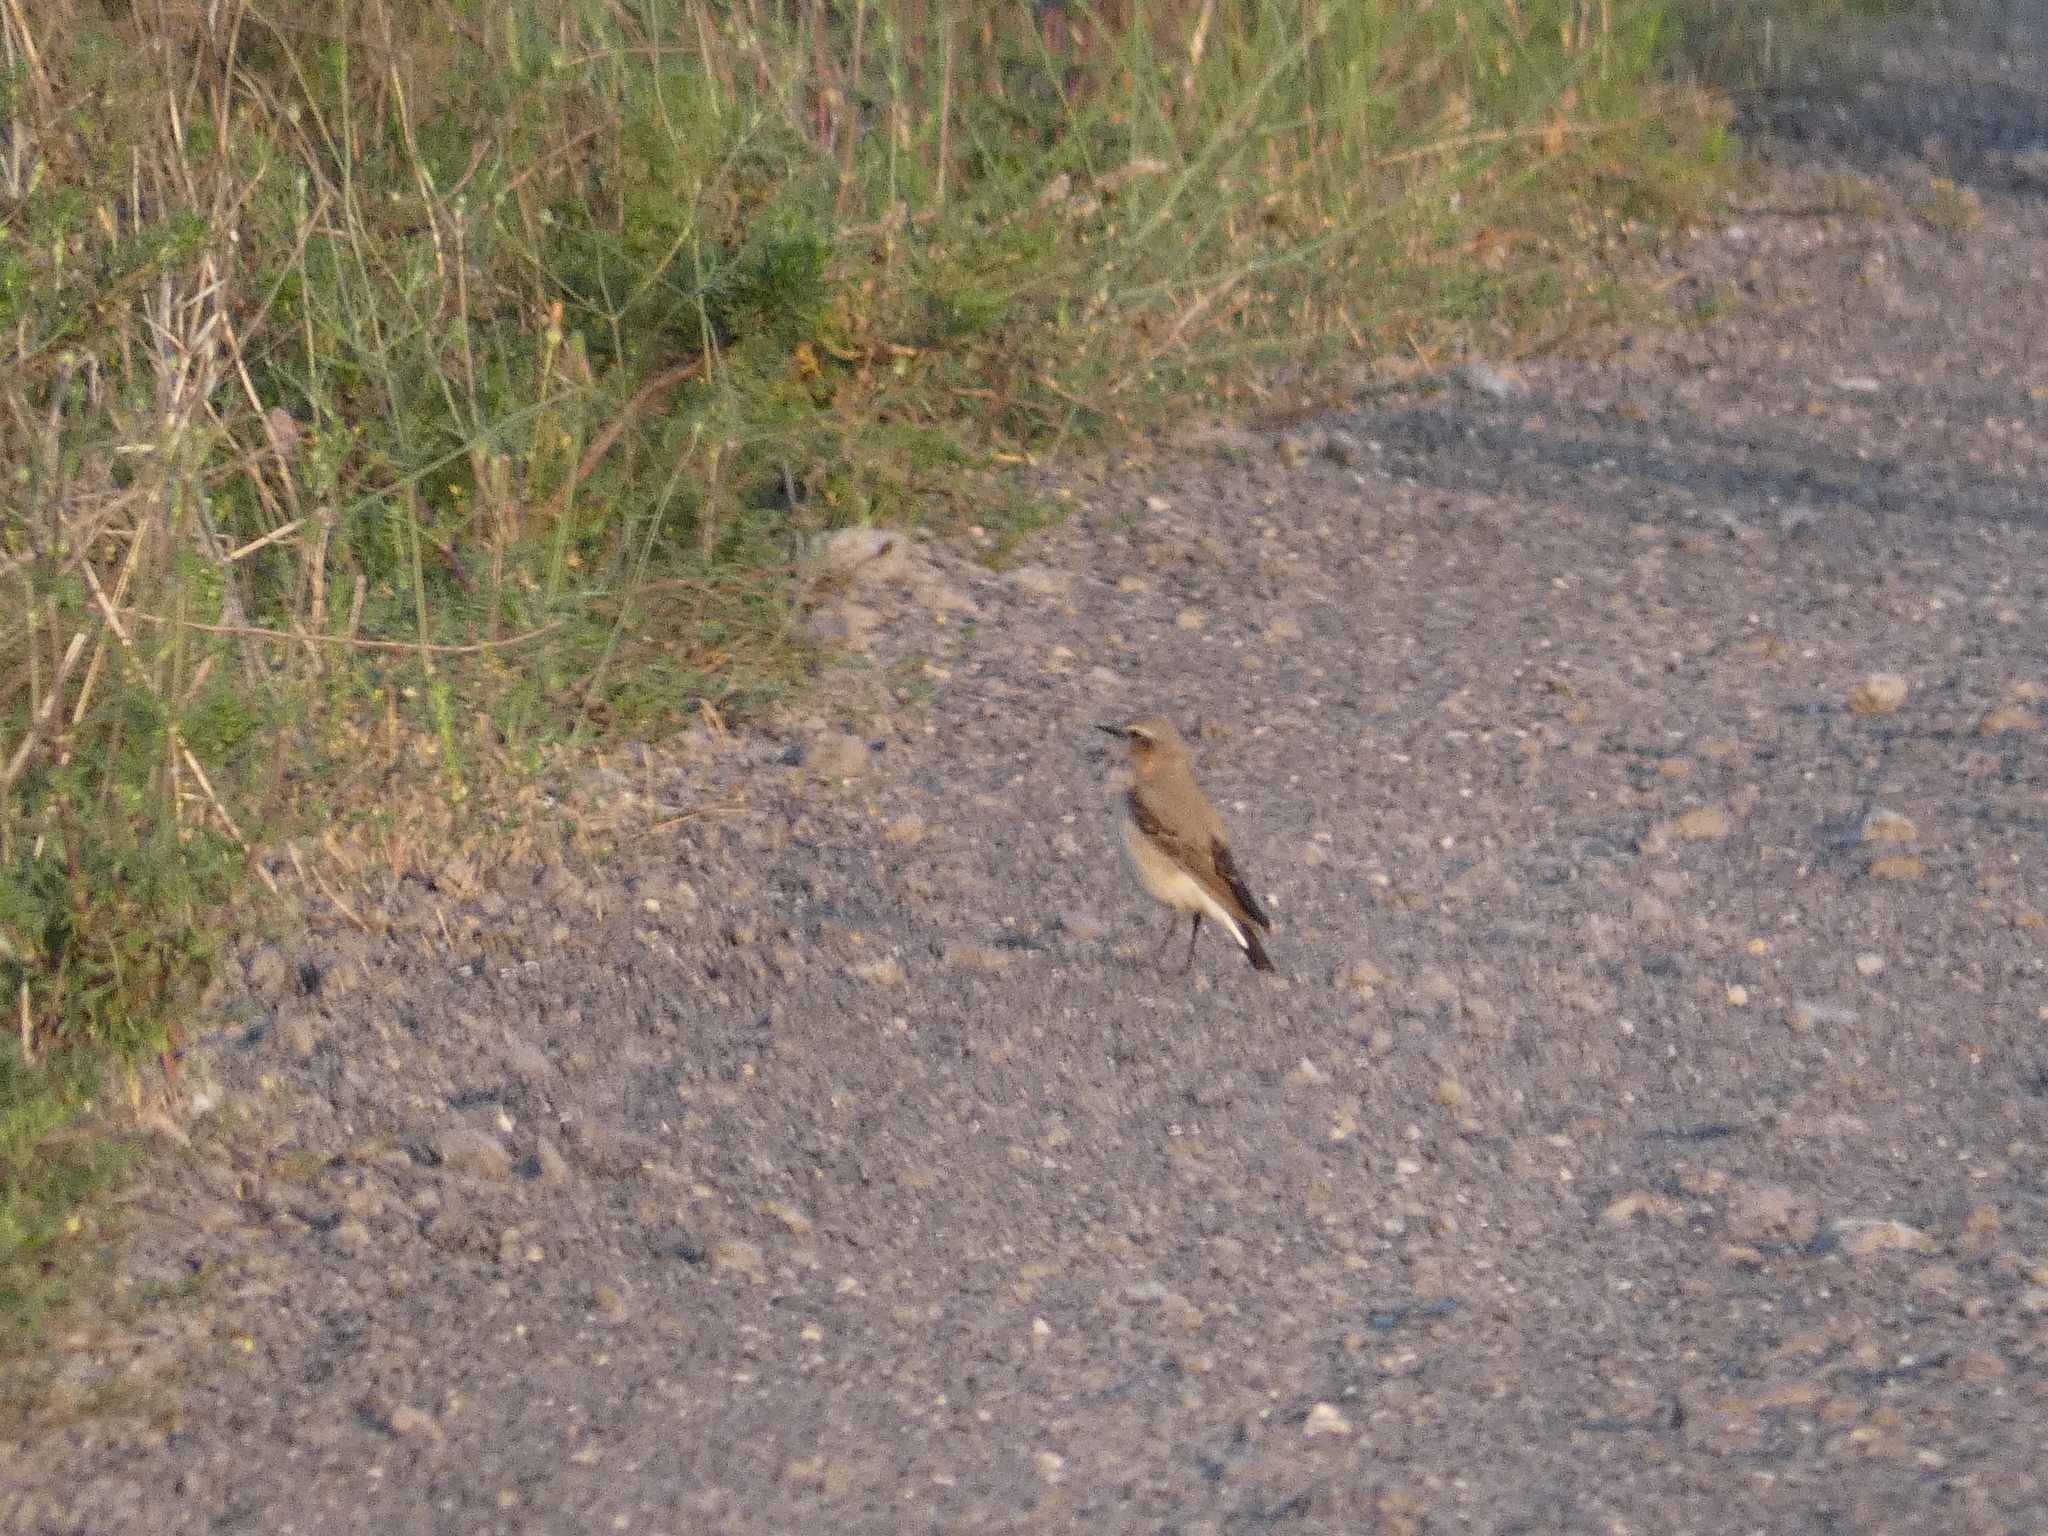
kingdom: Animalia
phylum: Chordata
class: Aves
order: Passeriformes
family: Muscicapidae
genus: Oenanthe
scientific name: Oenanthe oenanthe
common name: Northern wheatear
